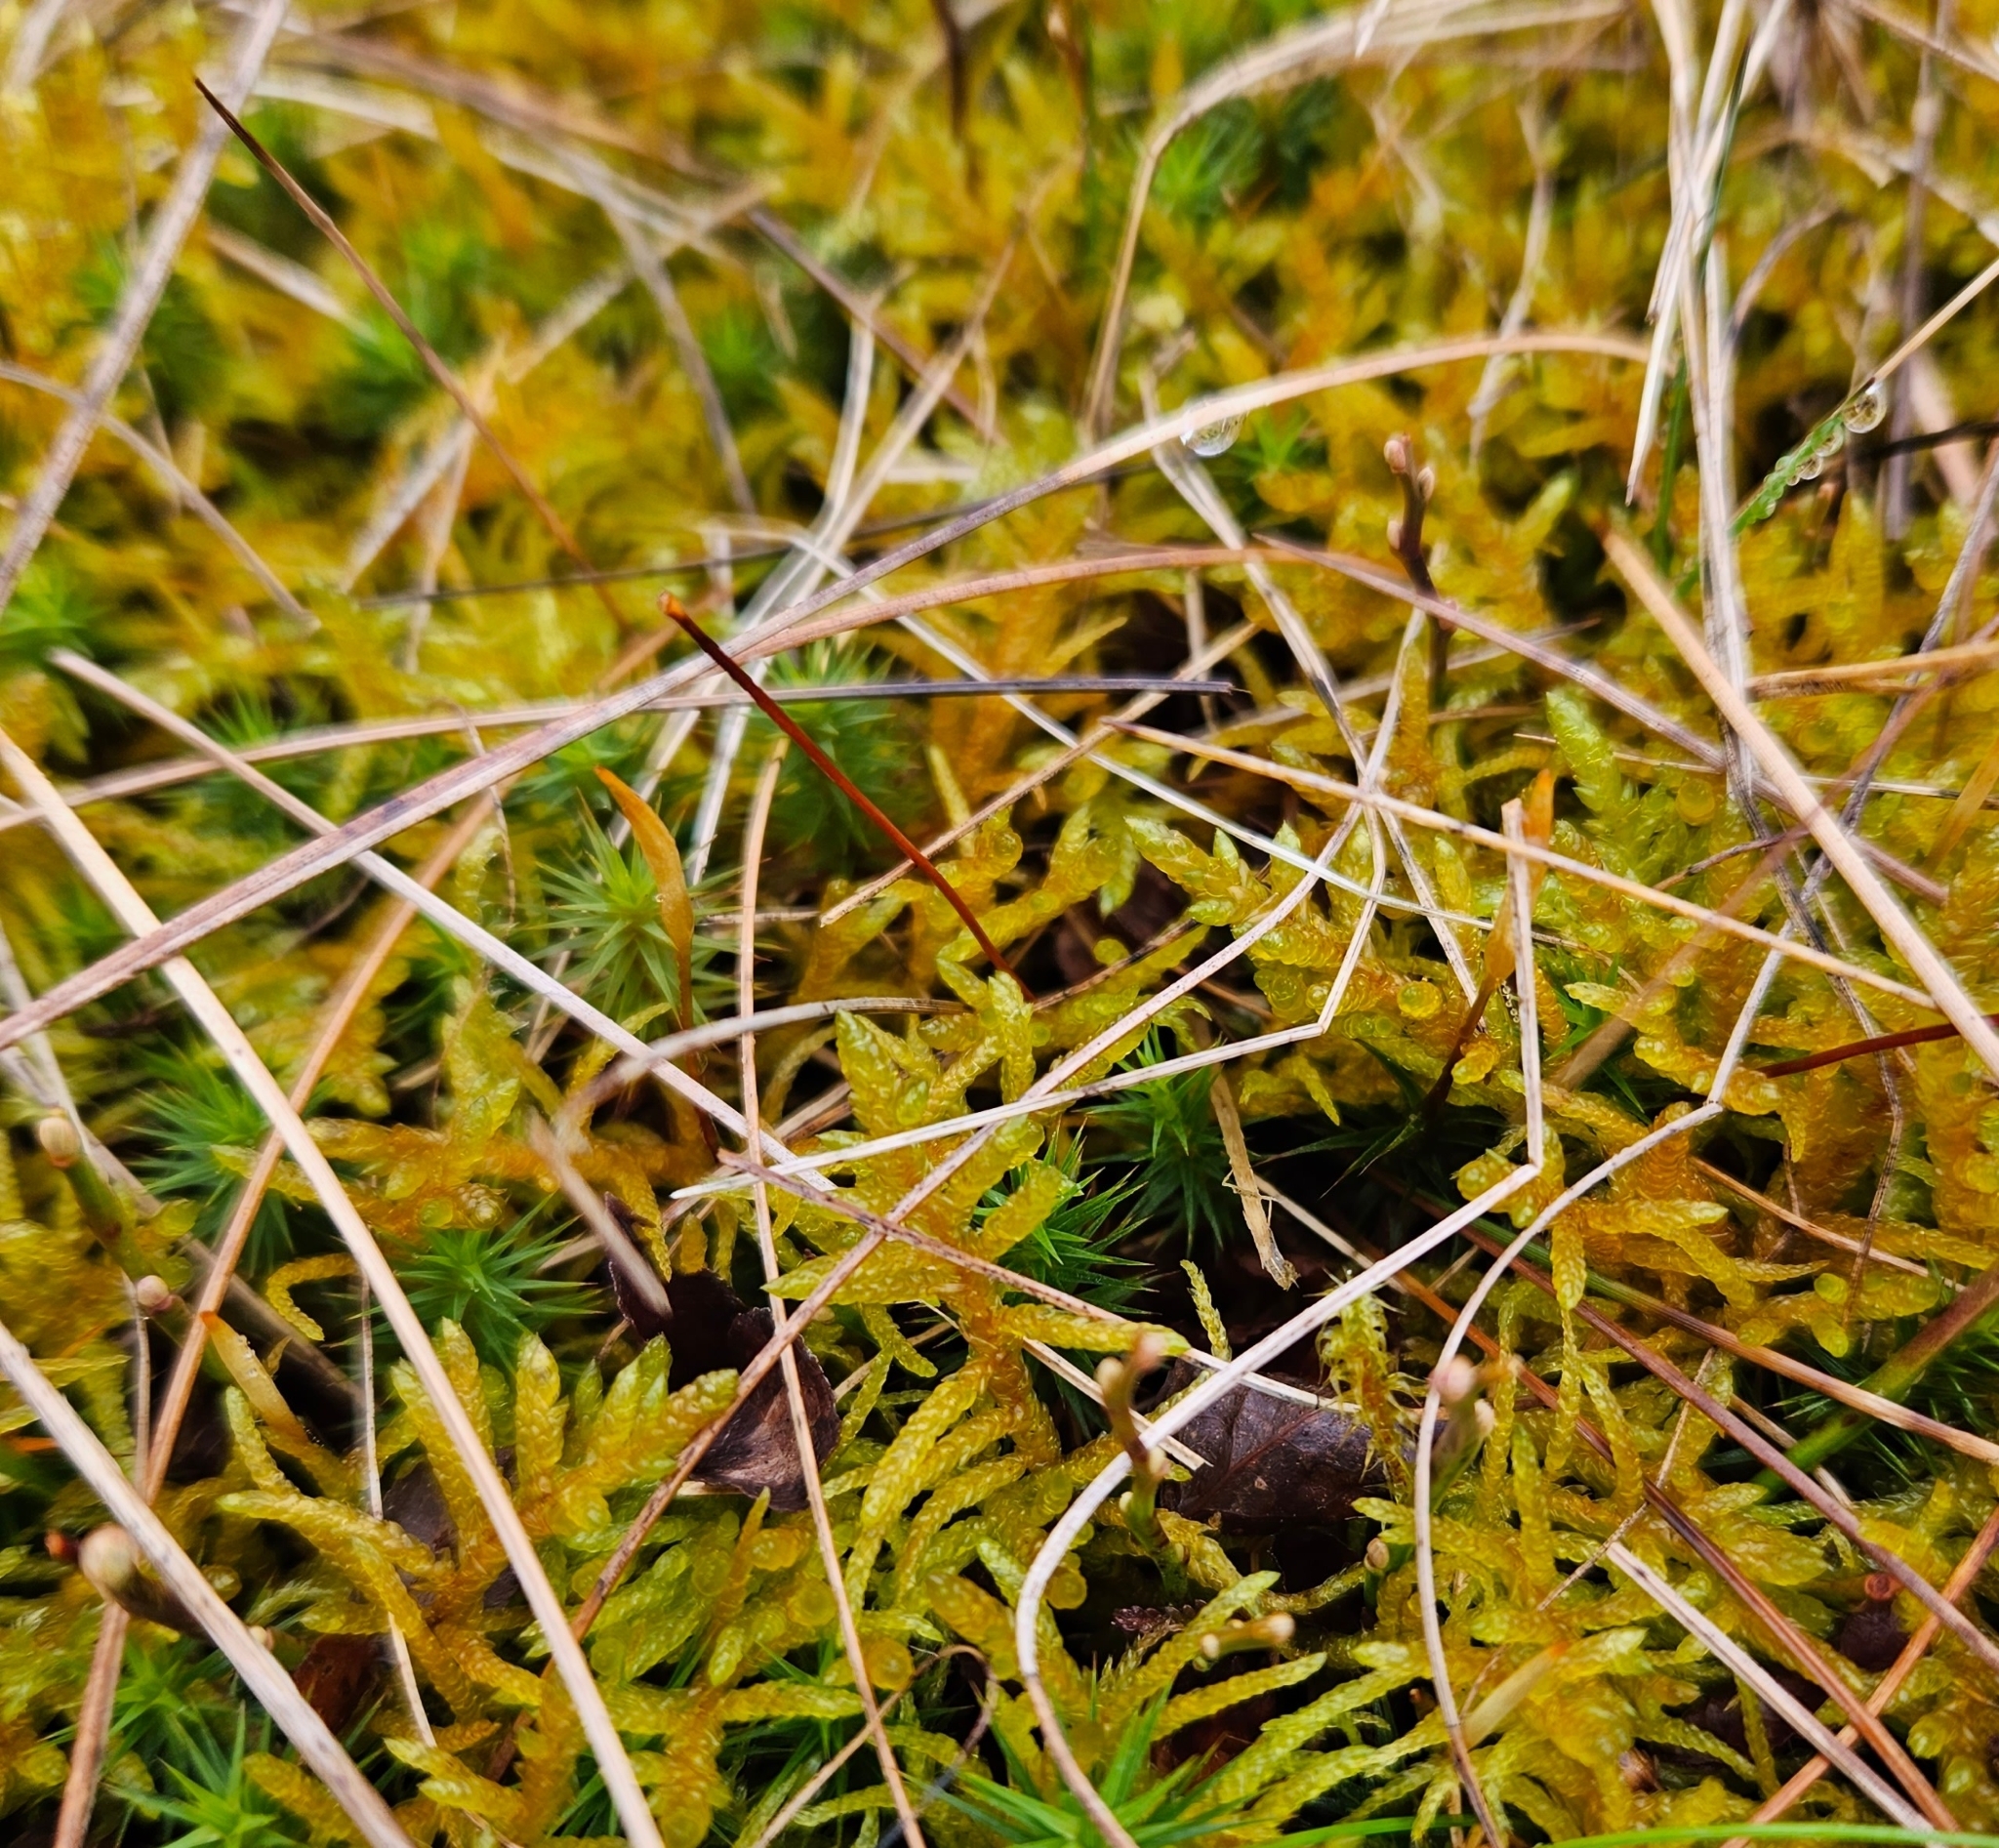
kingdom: Plantae
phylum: Bryophyta
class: Bryopsida
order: Hypnales
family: Brachytheciaceae
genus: Pseudoscleropodium
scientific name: Pseudoscleropodium purum
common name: Neat feather-moss
